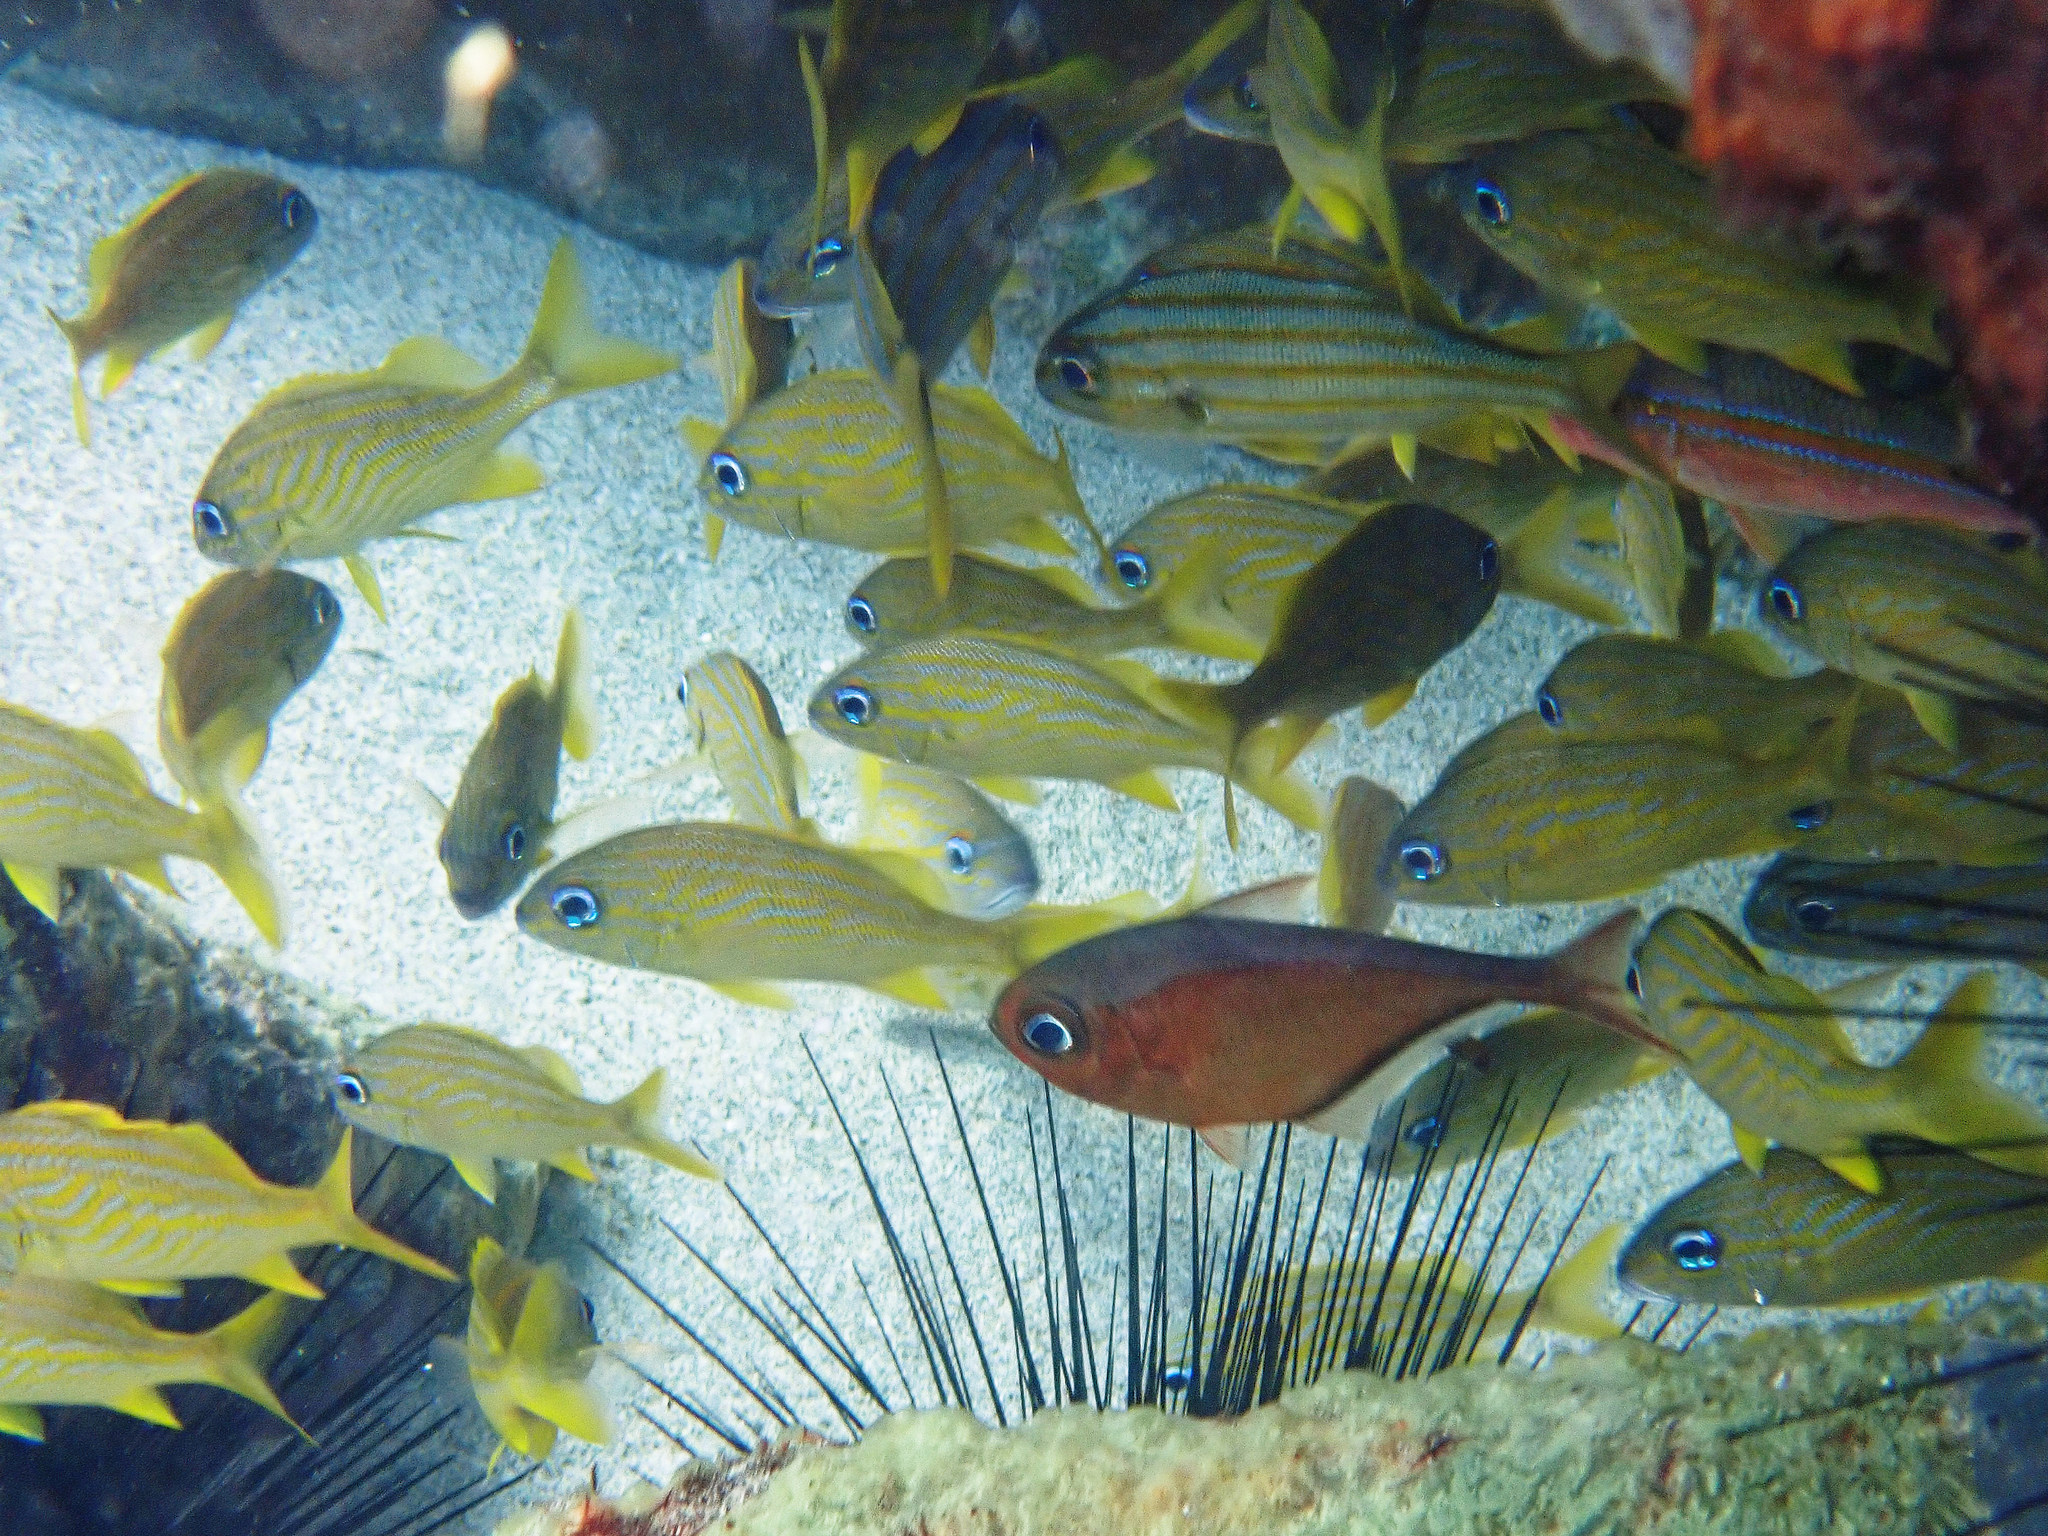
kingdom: Animalia
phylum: Chordata
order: Perciformes
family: Haemulidae
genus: Haemulon
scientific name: Haemulon flavolineatum
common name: French grunt
